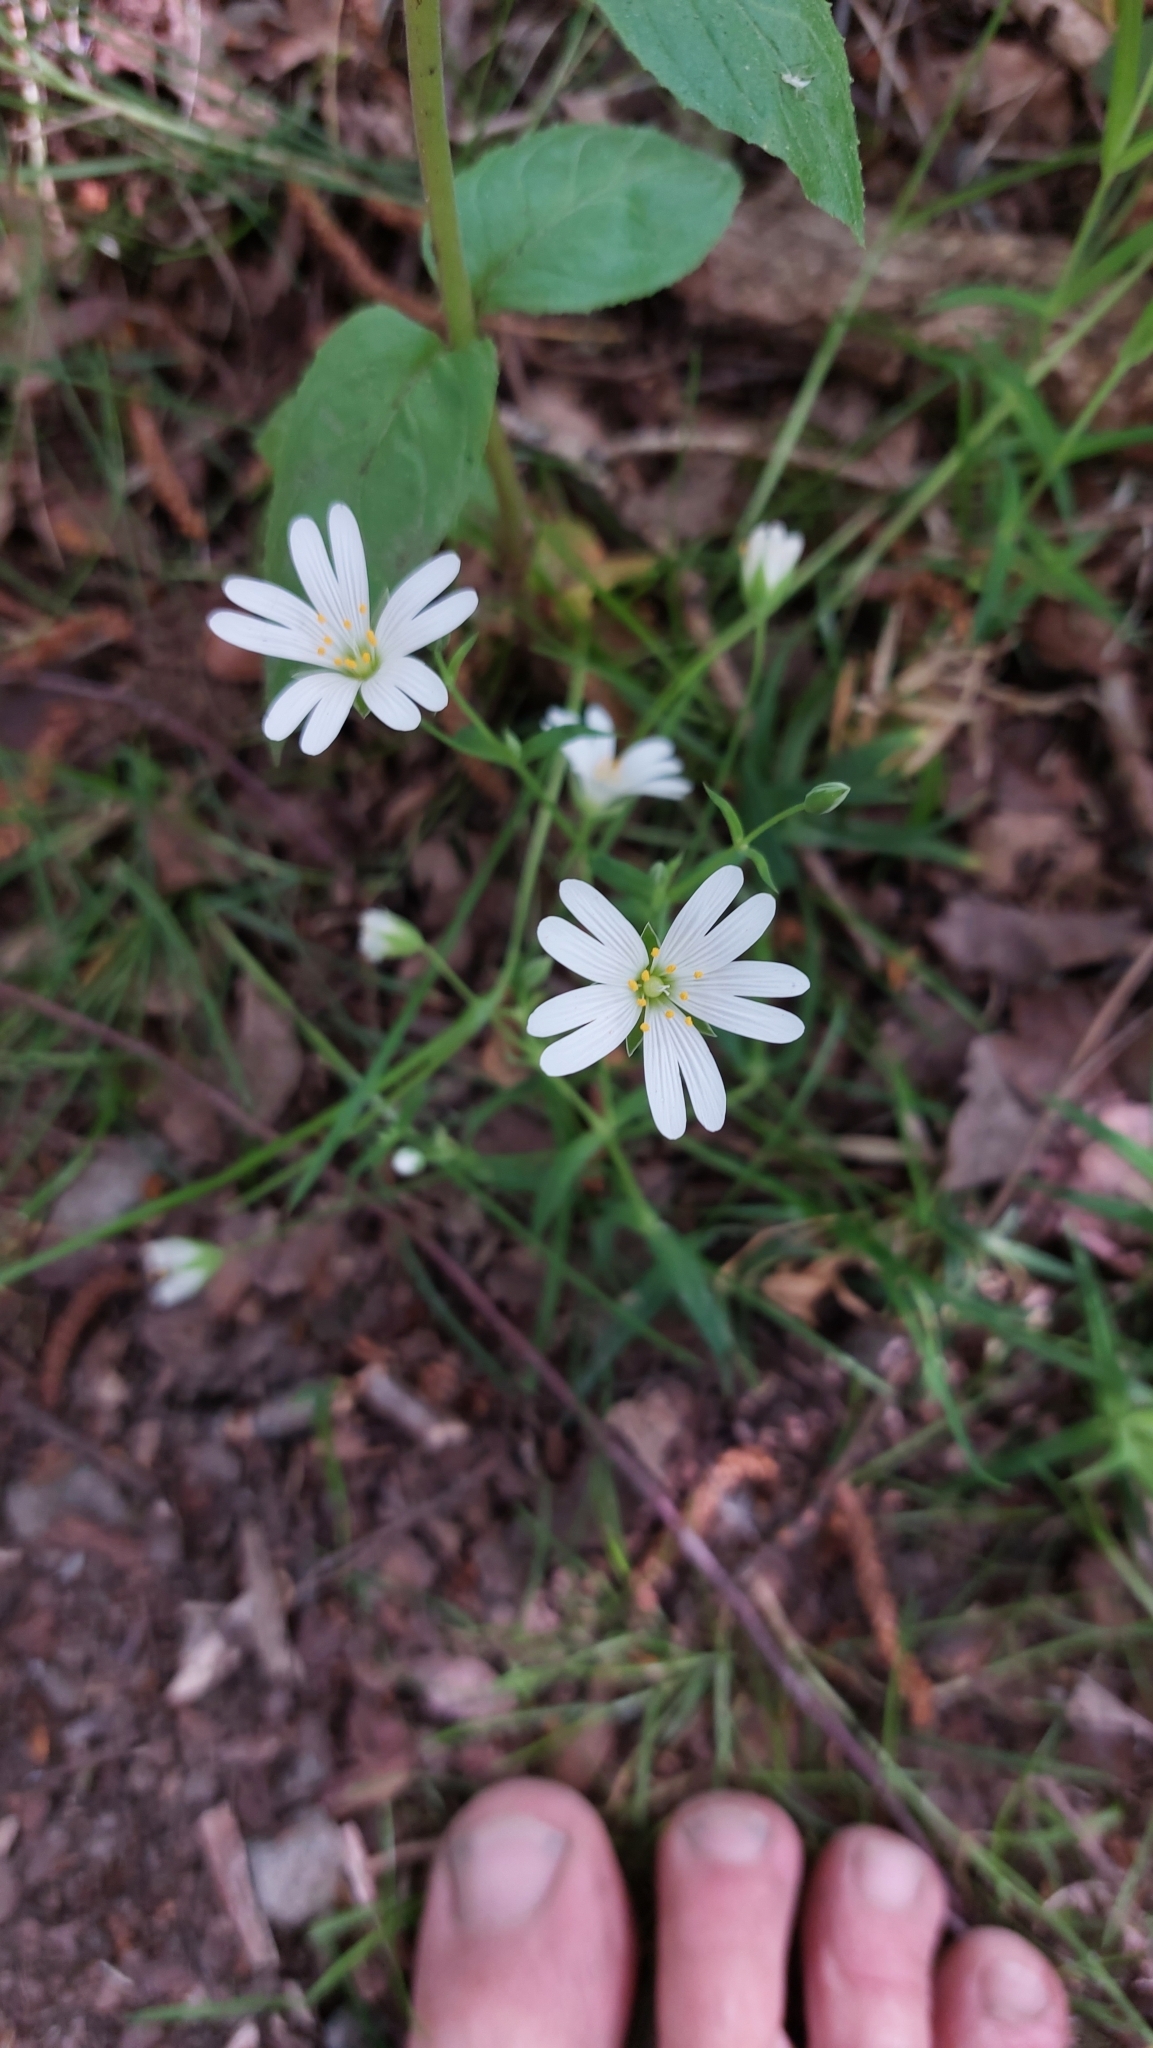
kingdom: Plantae
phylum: Tracheophyta
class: Magnoliopsida
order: Caryophyllales
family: Caryophyllaceae
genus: Rabelera
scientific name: Rabelera holostea
